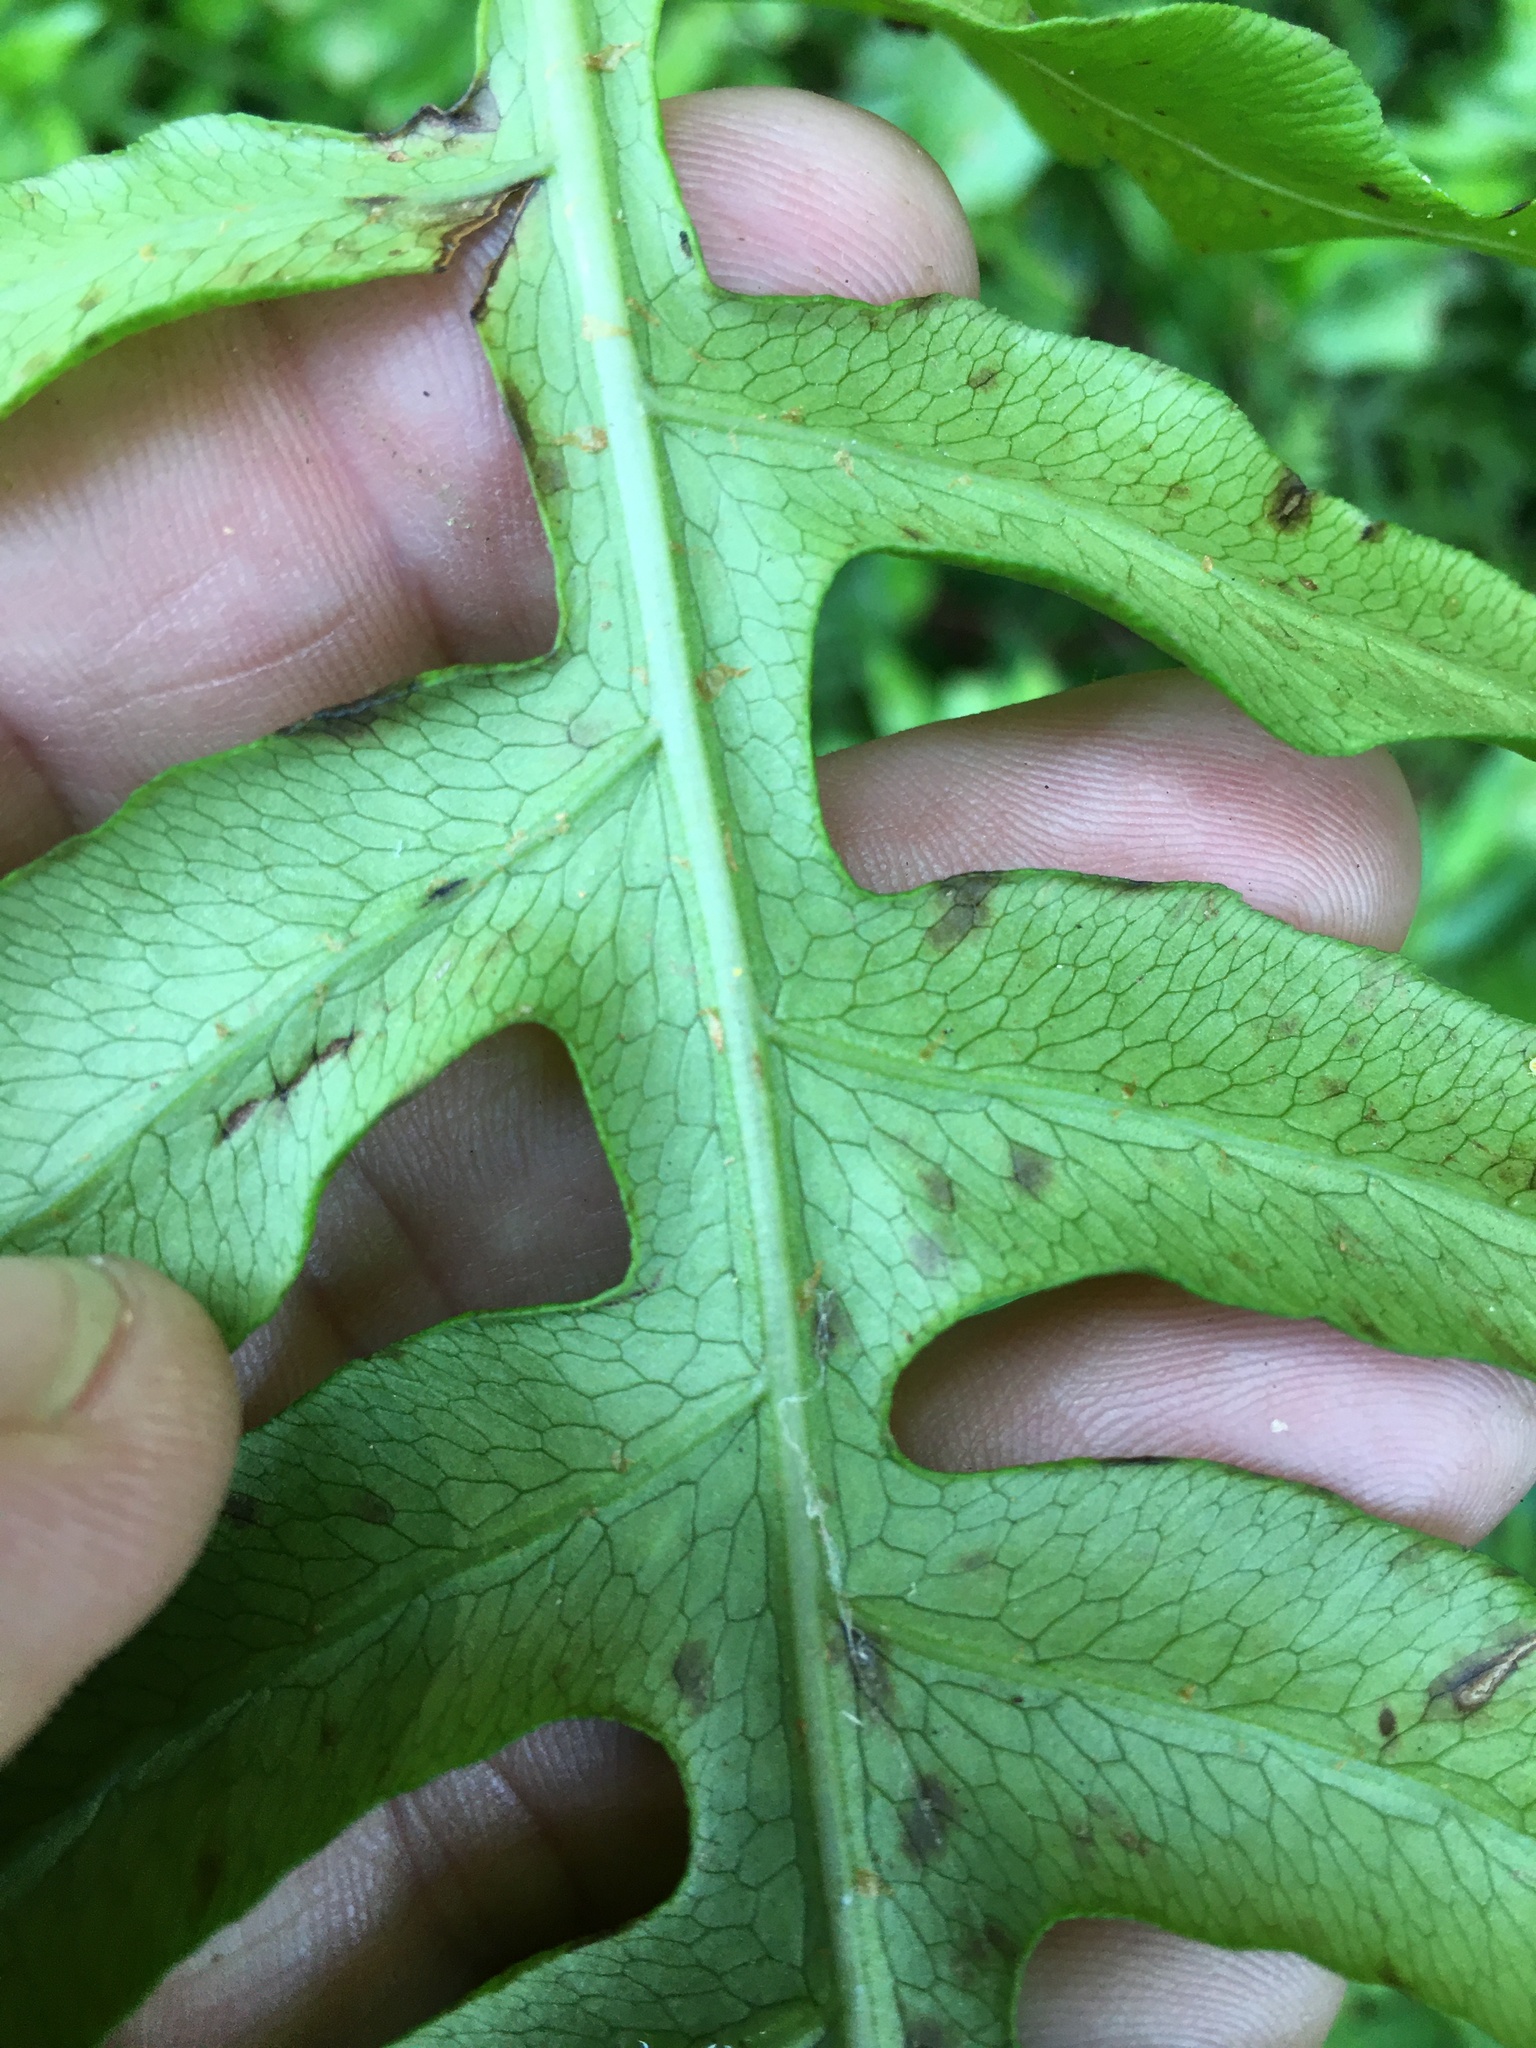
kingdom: Plantae
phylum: Tracheophyta
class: Polypodiopsida
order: Polypodiales
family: Blechnaceae
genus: Lorinseria
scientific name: Lorinseria areolata
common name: Dwarf chain fern
